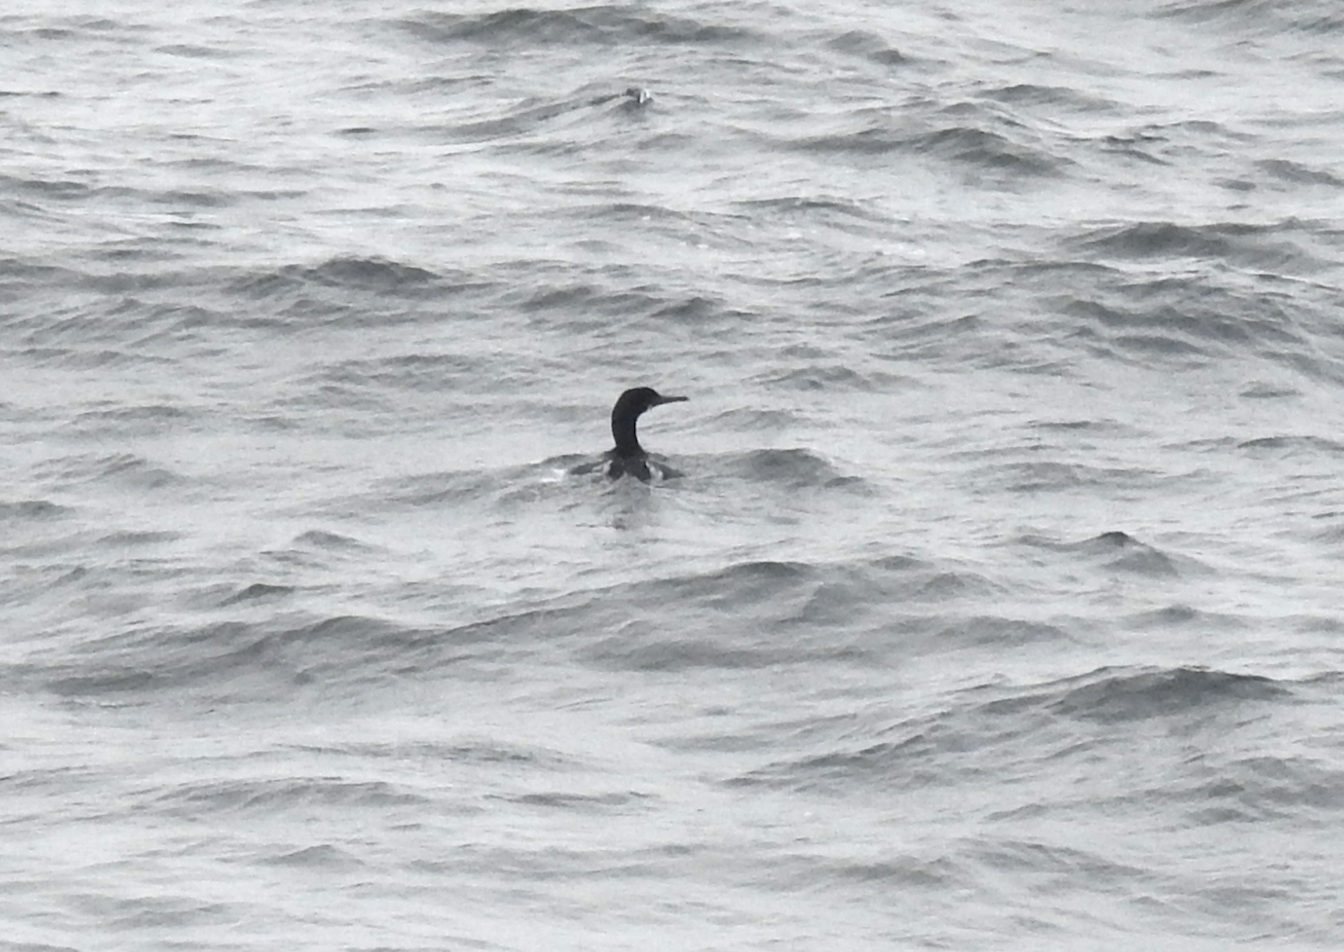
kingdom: Animalia
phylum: Chordata
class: Aves
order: Suliformes
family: Phalacrocoracidae
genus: Urile
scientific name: Urile penicillatus
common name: Brandt's cormorant
